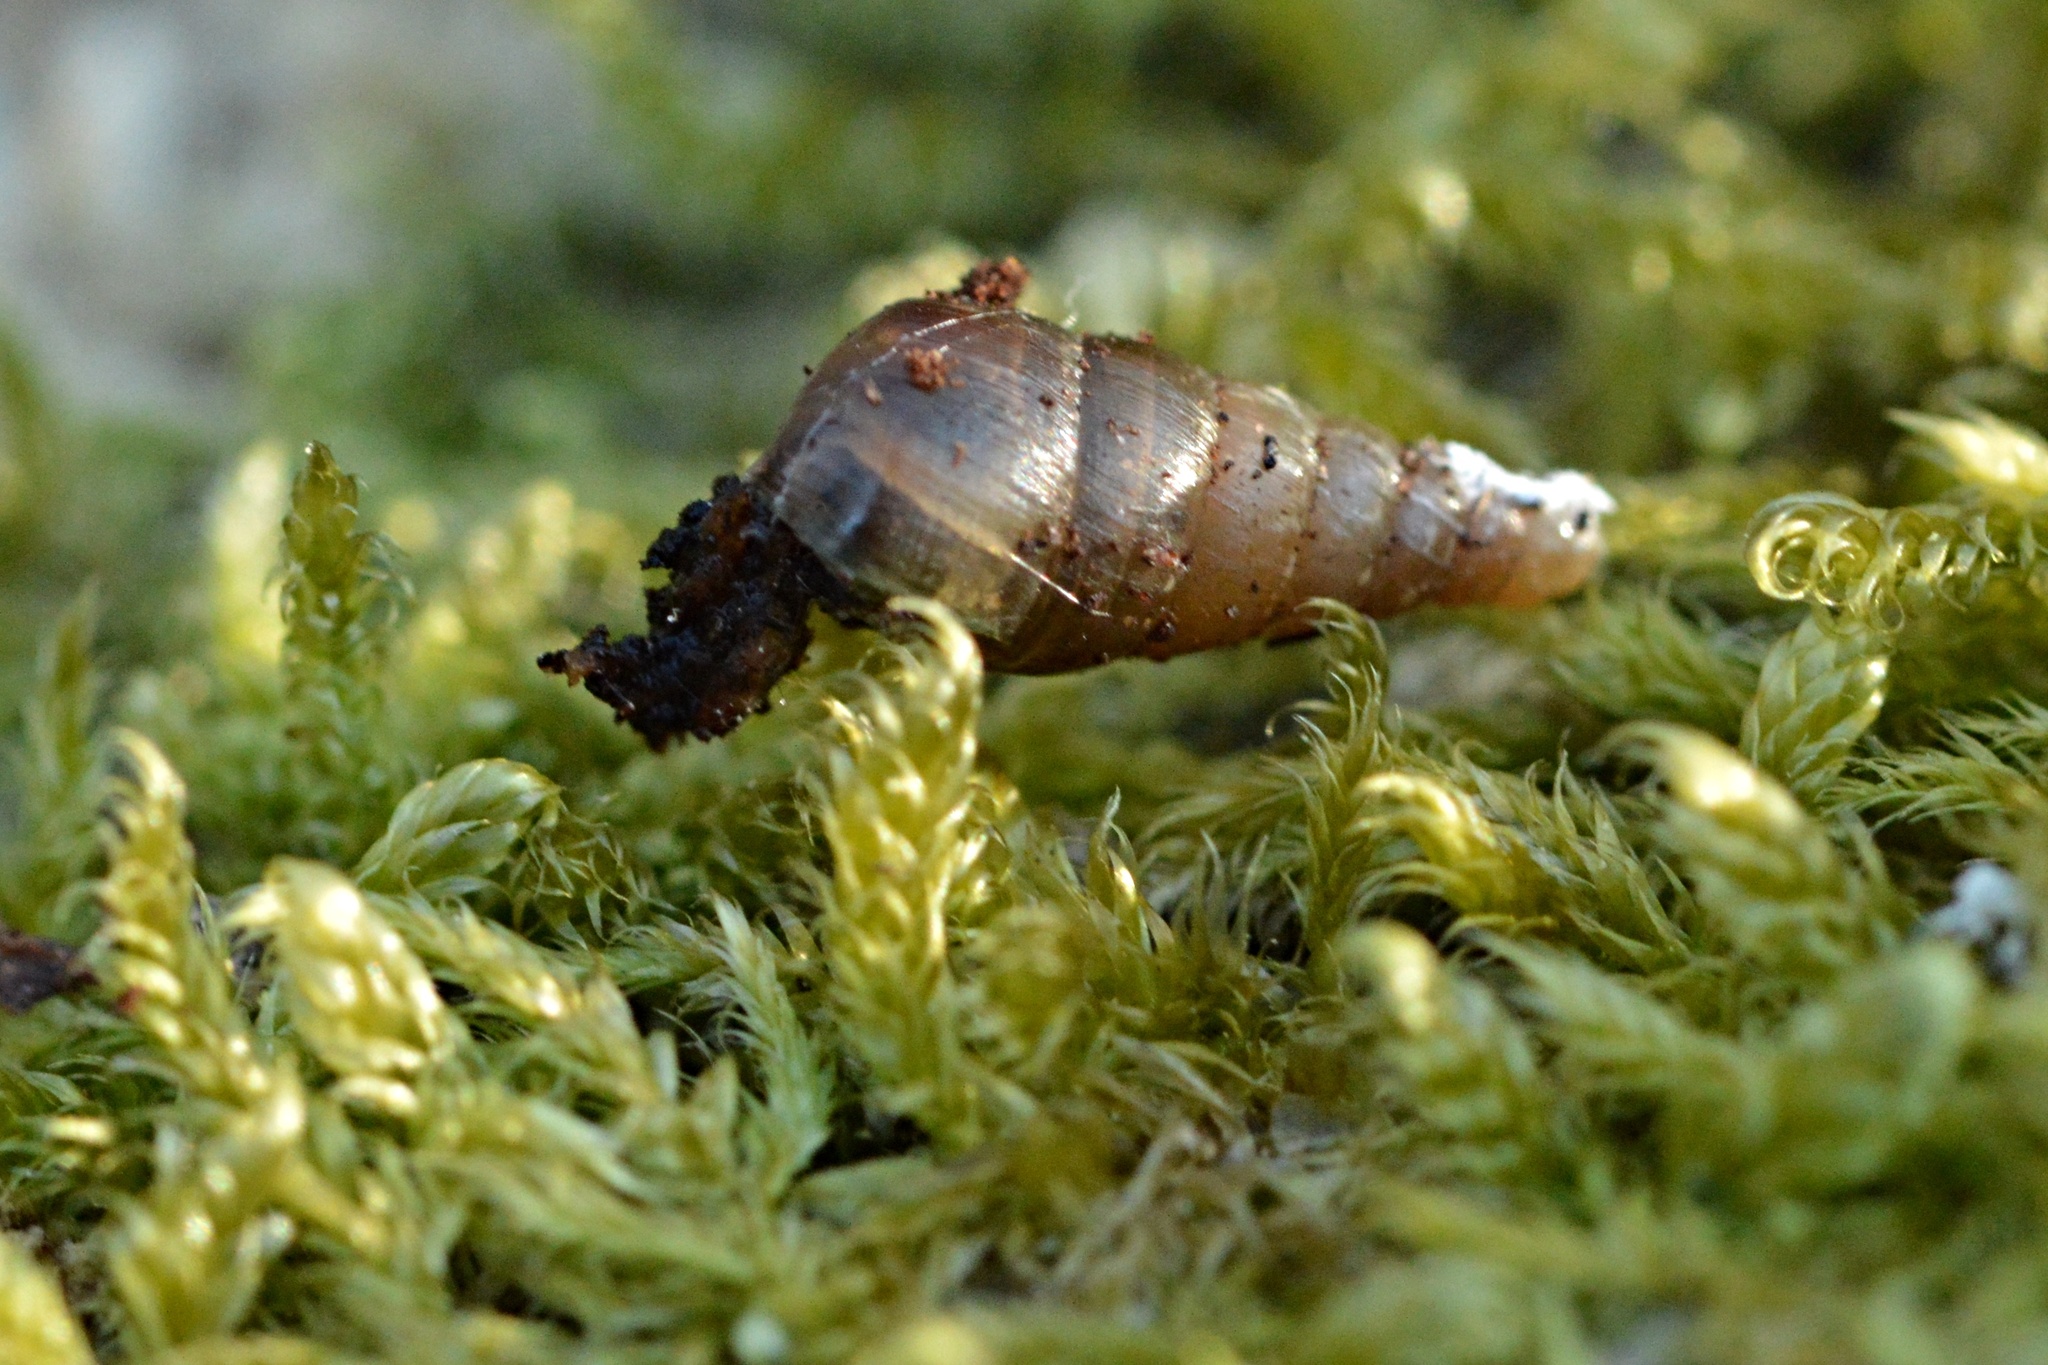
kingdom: Animalia
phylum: Mollusca
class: Gastropoda
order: Stylommatophora
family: Clausiliidae
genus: Cochlodina
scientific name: Cochlodina laminata
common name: Plaited door snail
